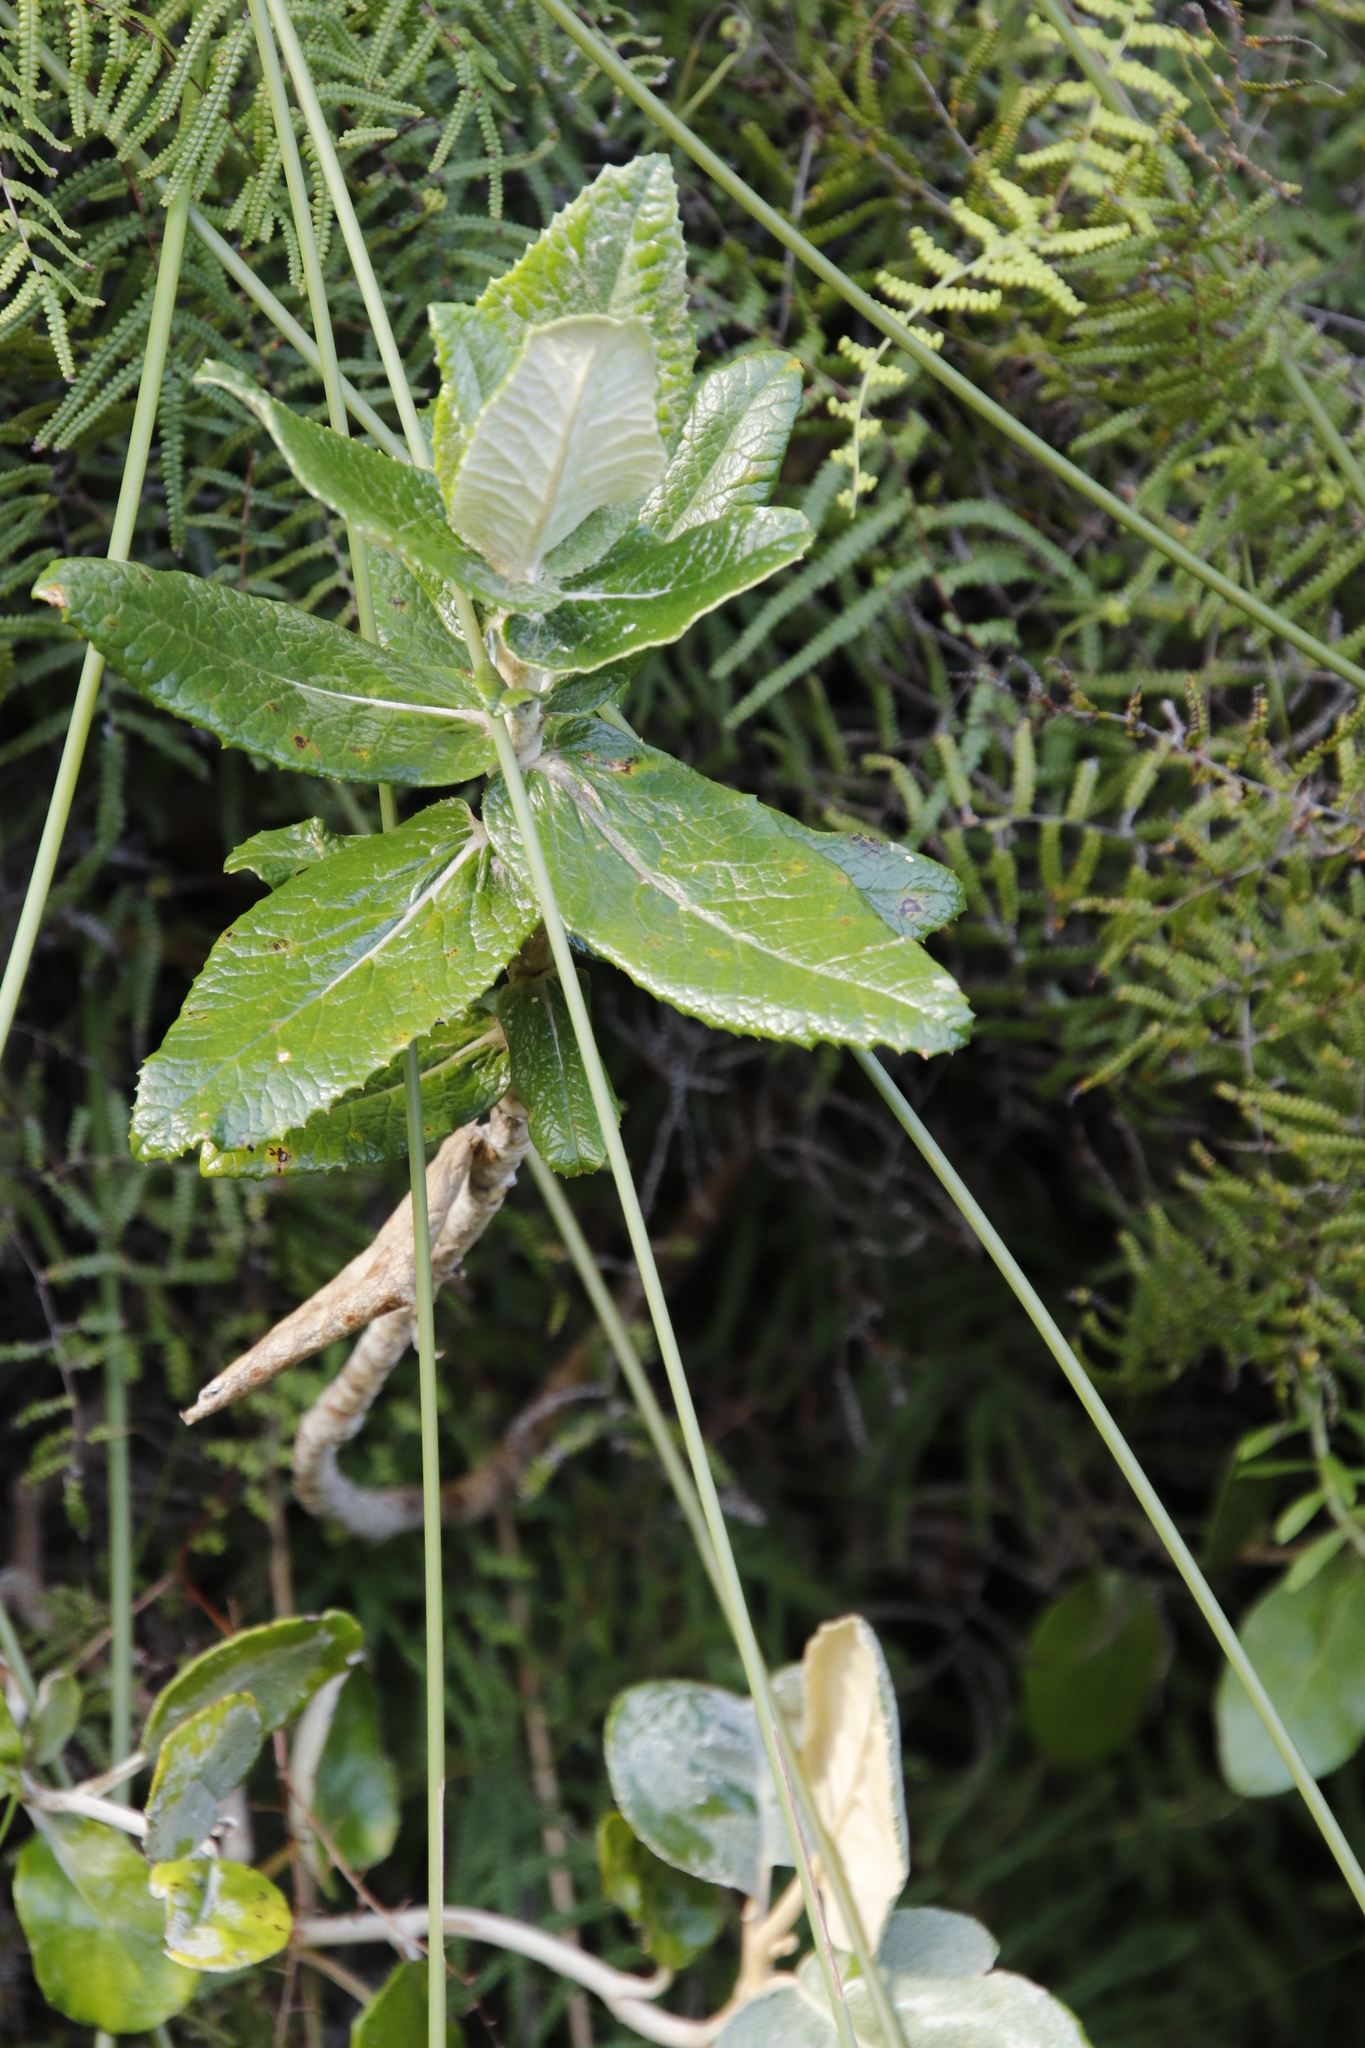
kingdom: Plantae
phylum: Tracheophyta
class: Magnoliopsida
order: Apiales
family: Apiaceae
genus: Hermas
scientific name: Hermas villosa
